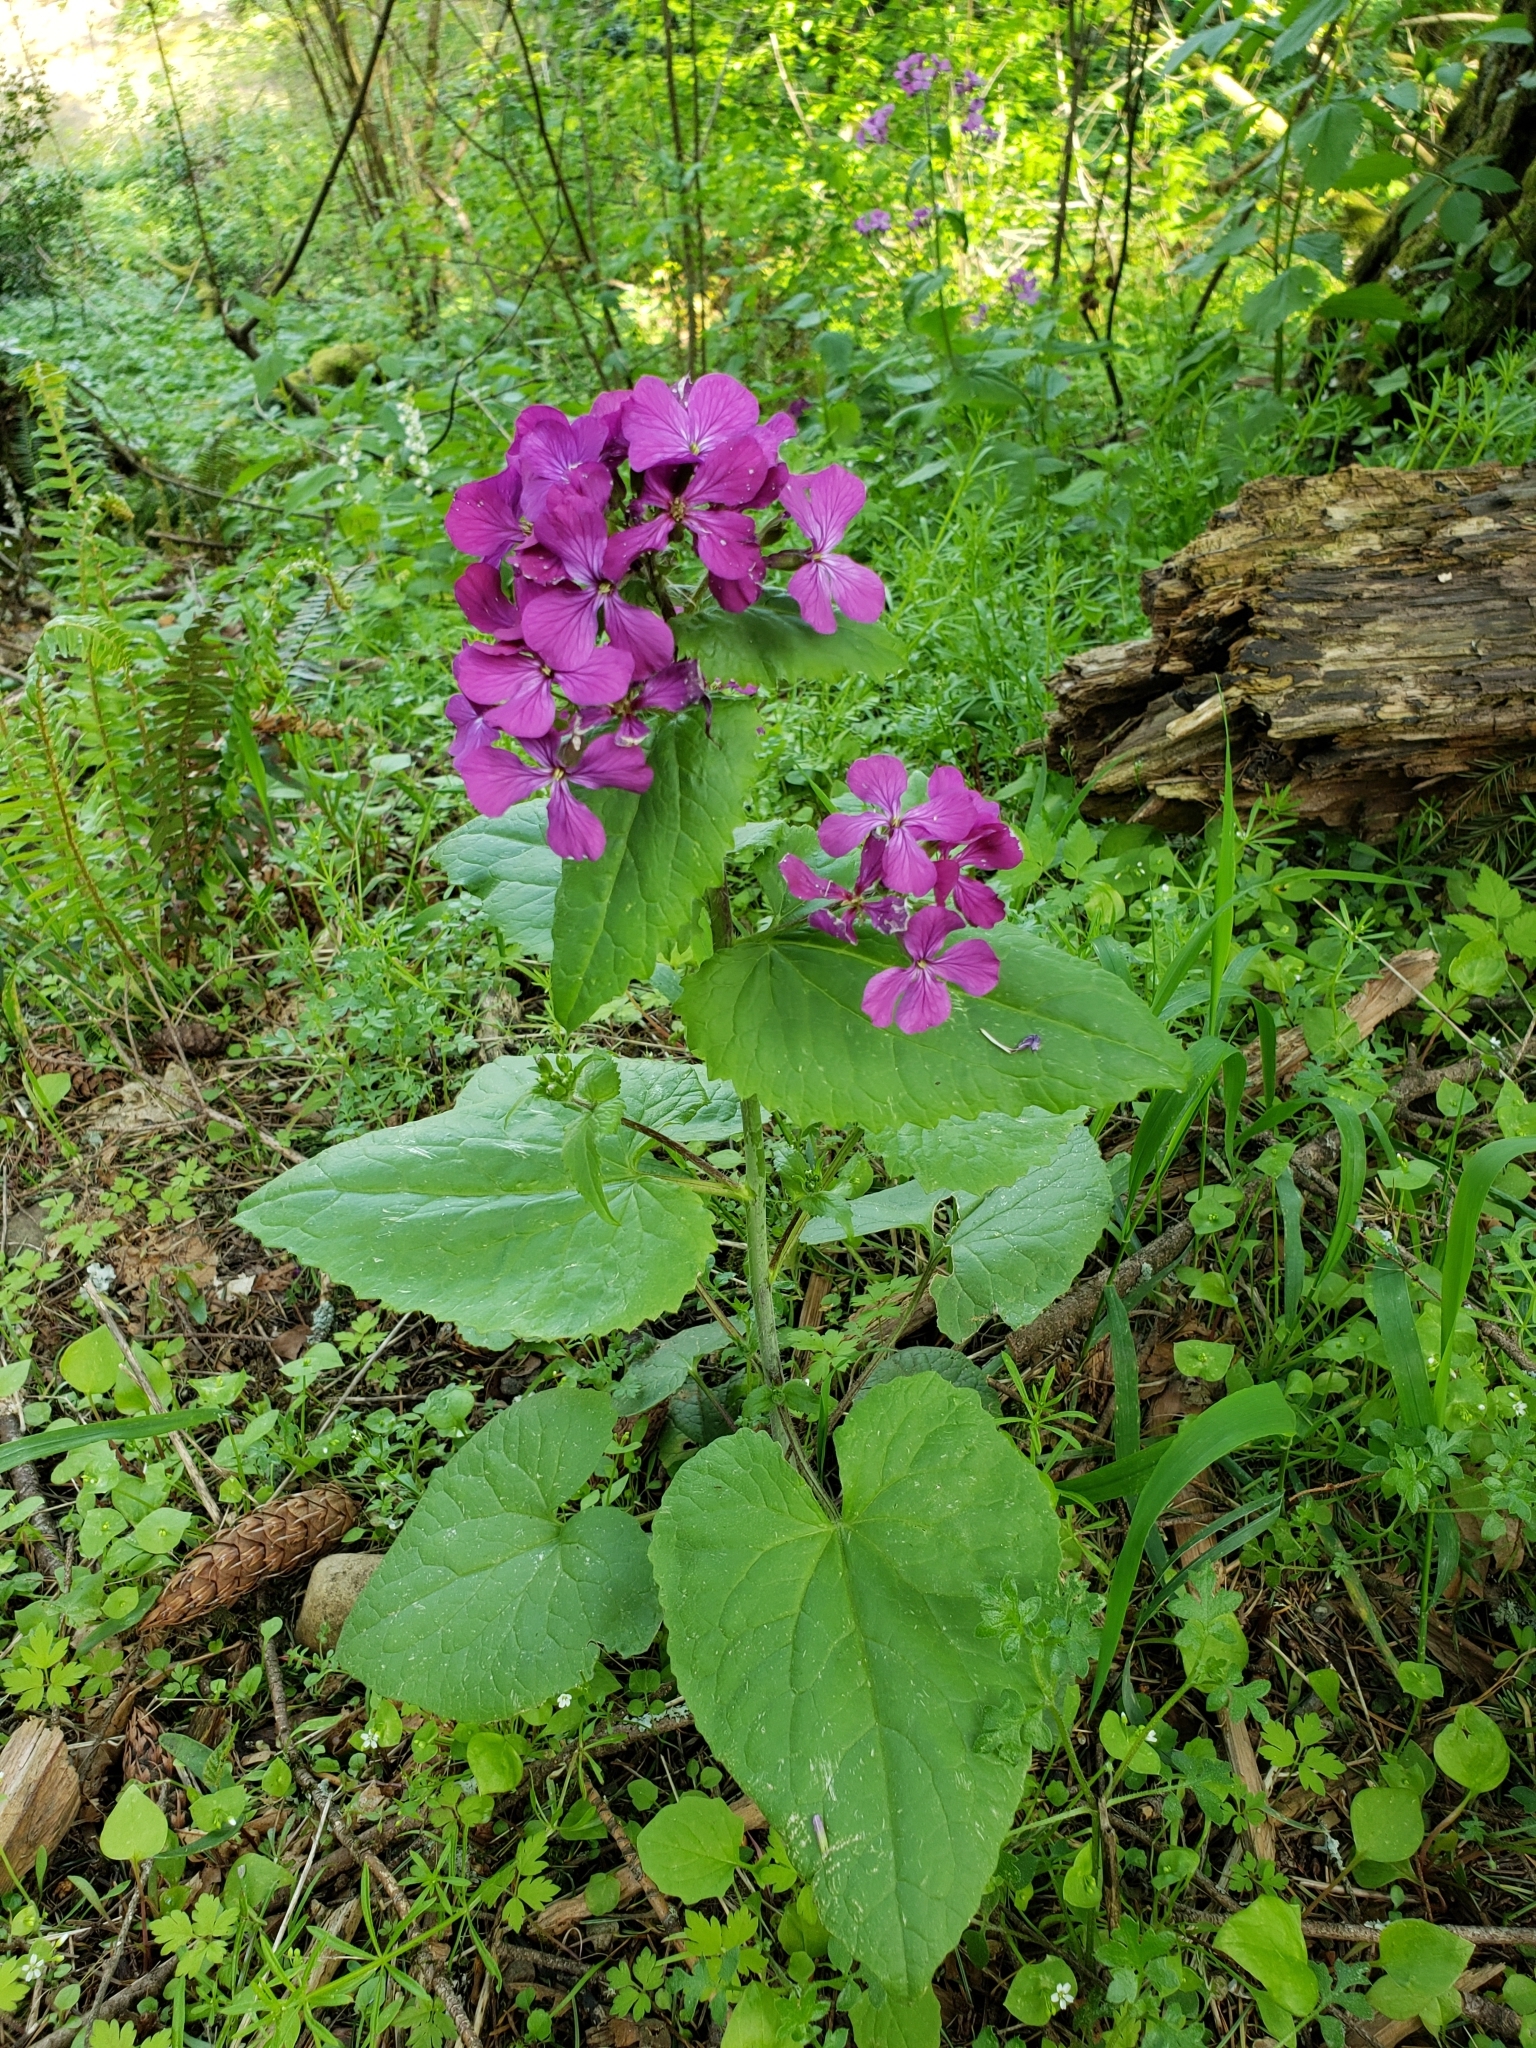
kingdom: Plantae
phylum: Tracheophyta
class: Magnoliopsida
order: Brassicales
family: Brassicaceae
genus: Lunaria
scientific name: Lunaria annua
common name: Honesty
